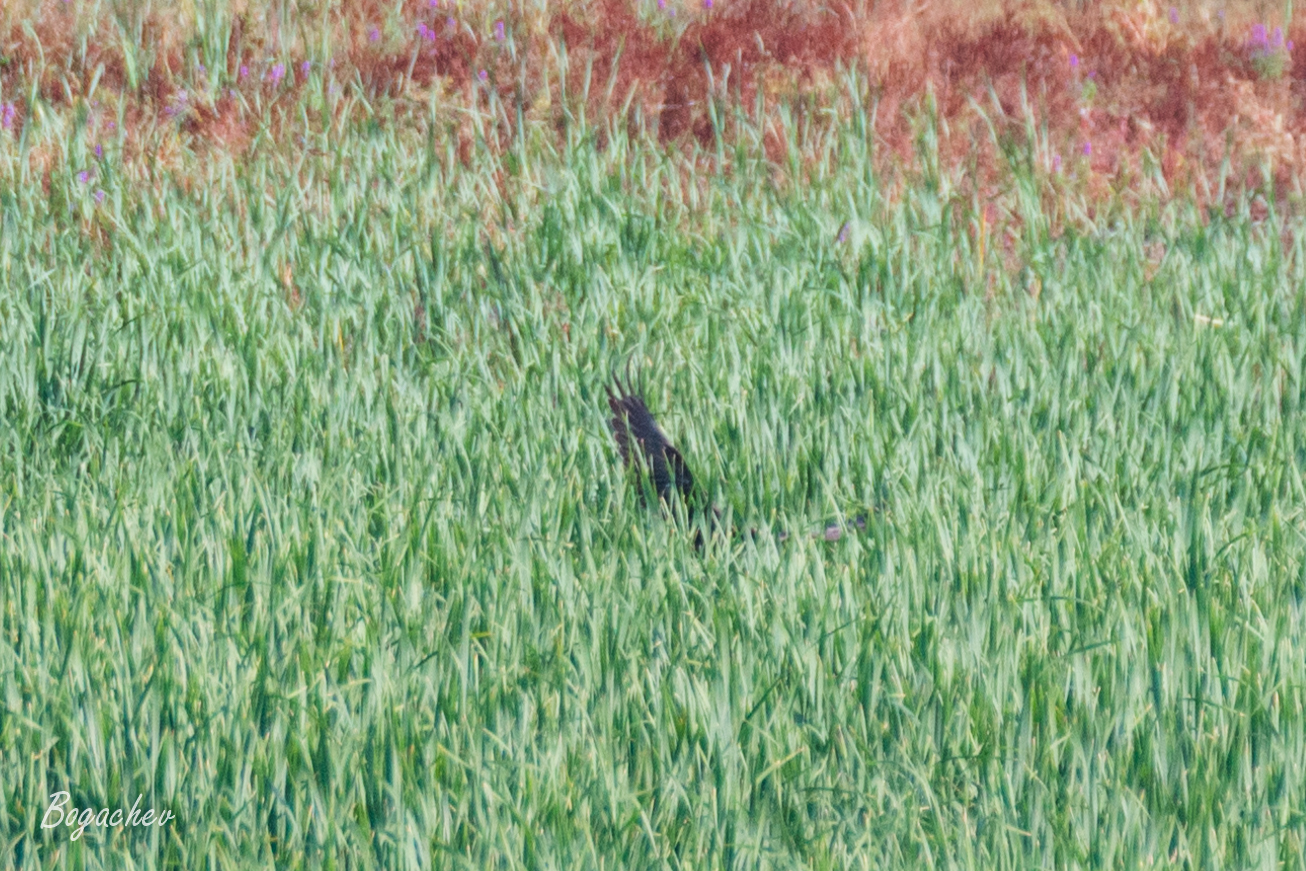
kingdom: Animalia
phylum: Chordata
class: Aves
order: Accipitriformes
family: Accipitridae
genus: Circus
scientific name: Circus aeruginosus
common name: Western marsh harrier
